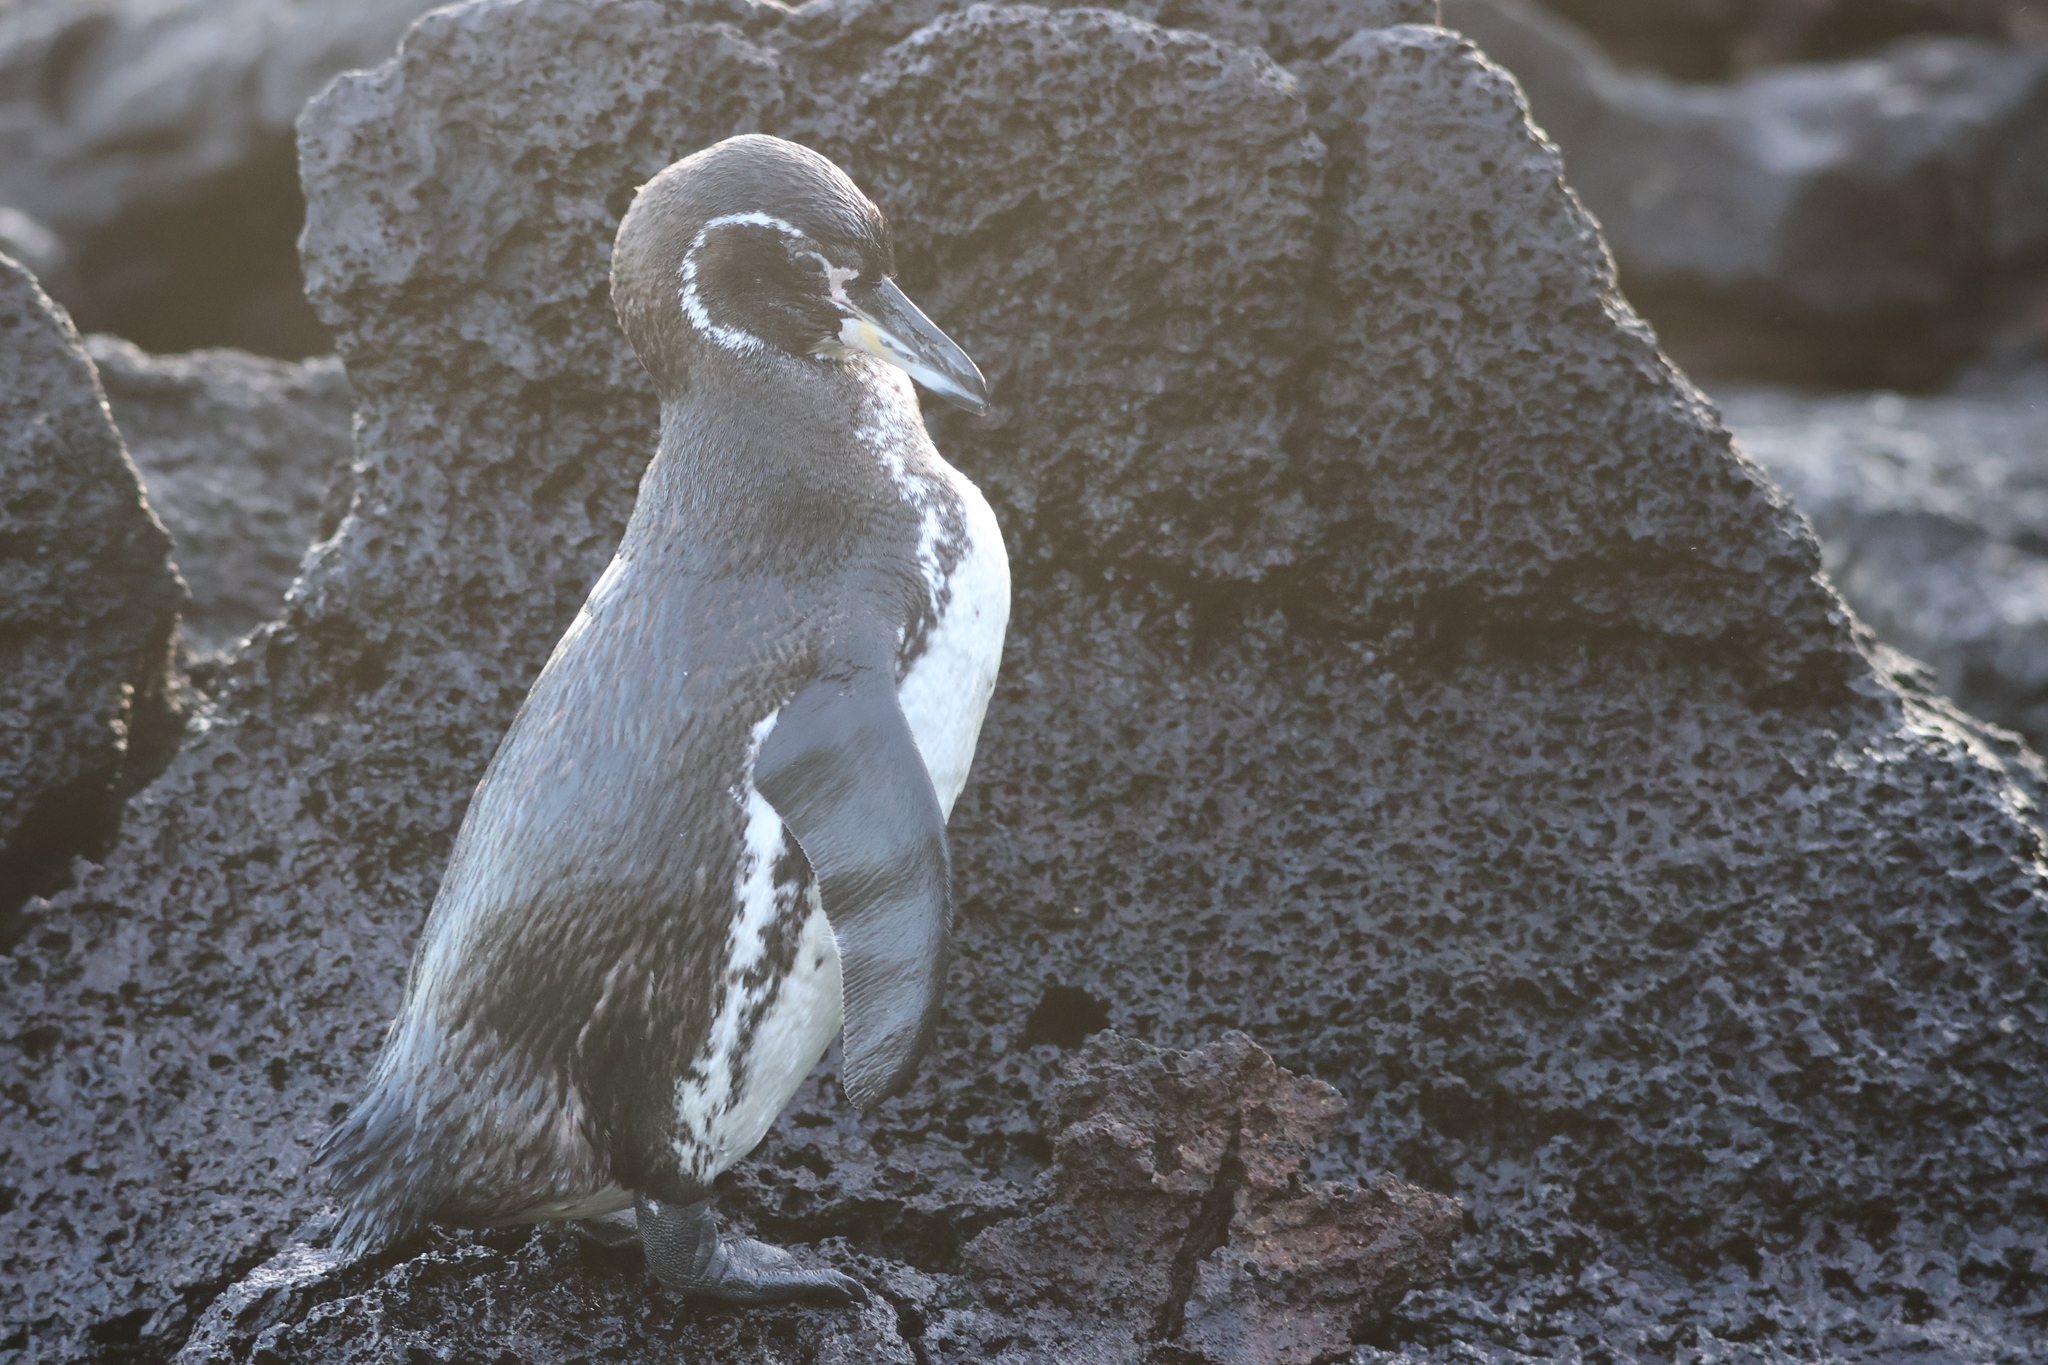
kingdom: Animalia
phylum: Chordata
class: Aves
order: Sphenisciformes
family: Spheniscidae
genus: Spheniscus
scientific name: Spheniscus mendiculus
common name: Galapagos penguin
